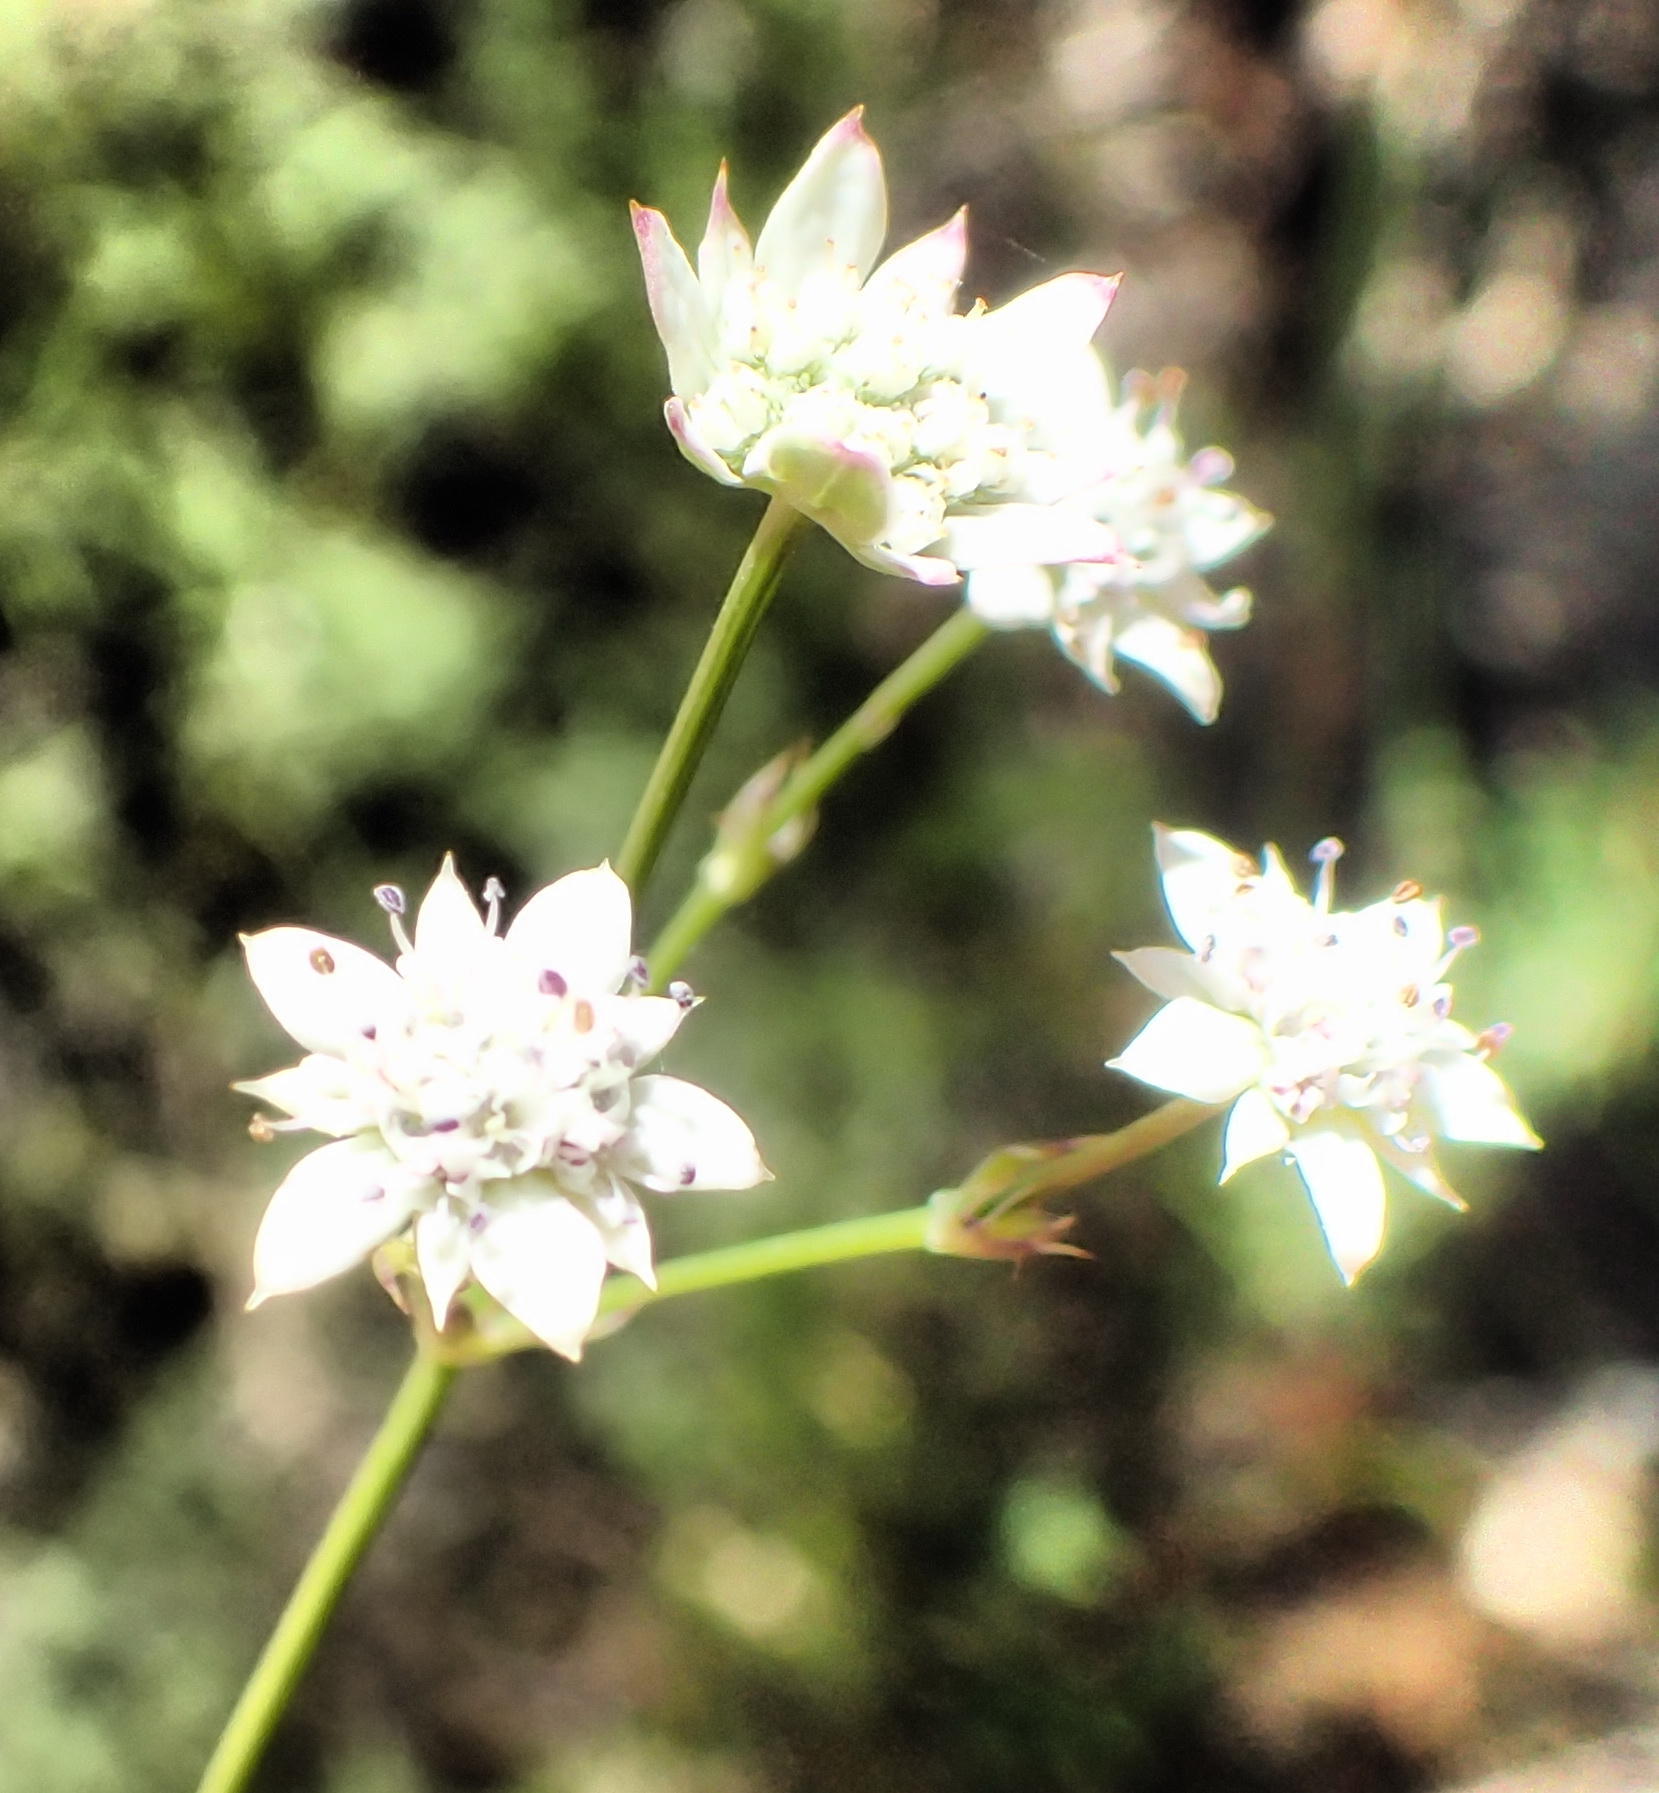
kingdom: Plantae
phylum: Tracheophyta
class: Magnoliopsida
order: Apiales
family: Apiaceae
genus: Alepidea
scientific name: Alepidea capensis
